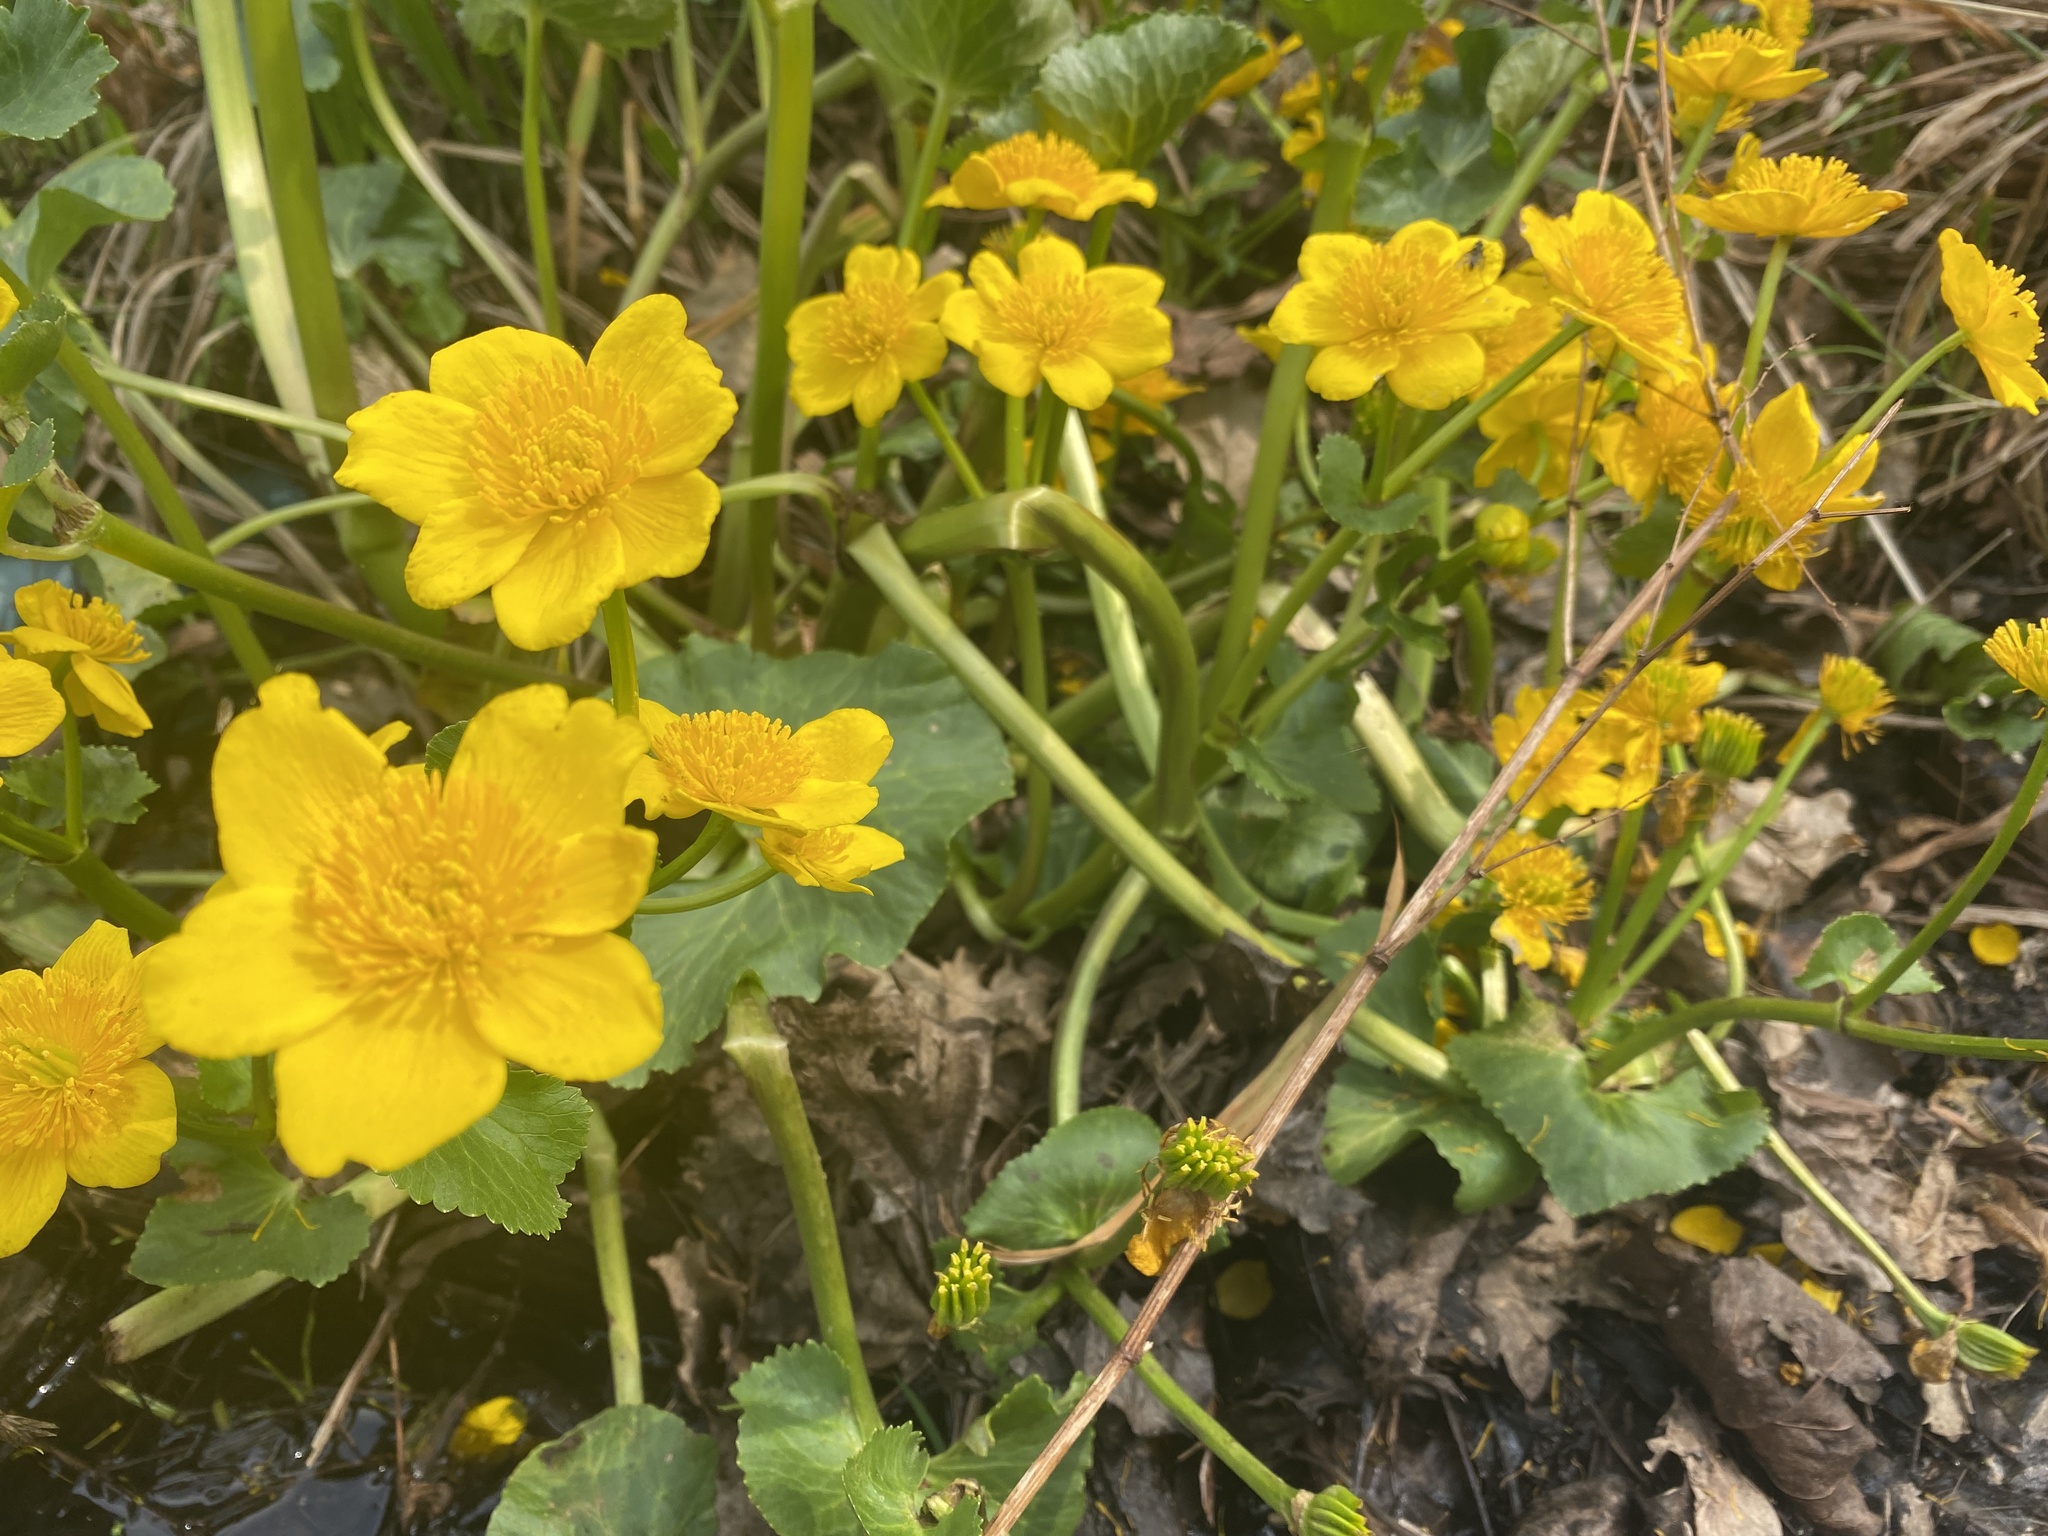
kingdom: Plantae
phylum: Tracheophyta
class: Magnoliopsida
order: Ranunculales
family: Ranunculaceae
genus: Caltha
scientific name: Caltha palustris
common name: Marsh marigold
